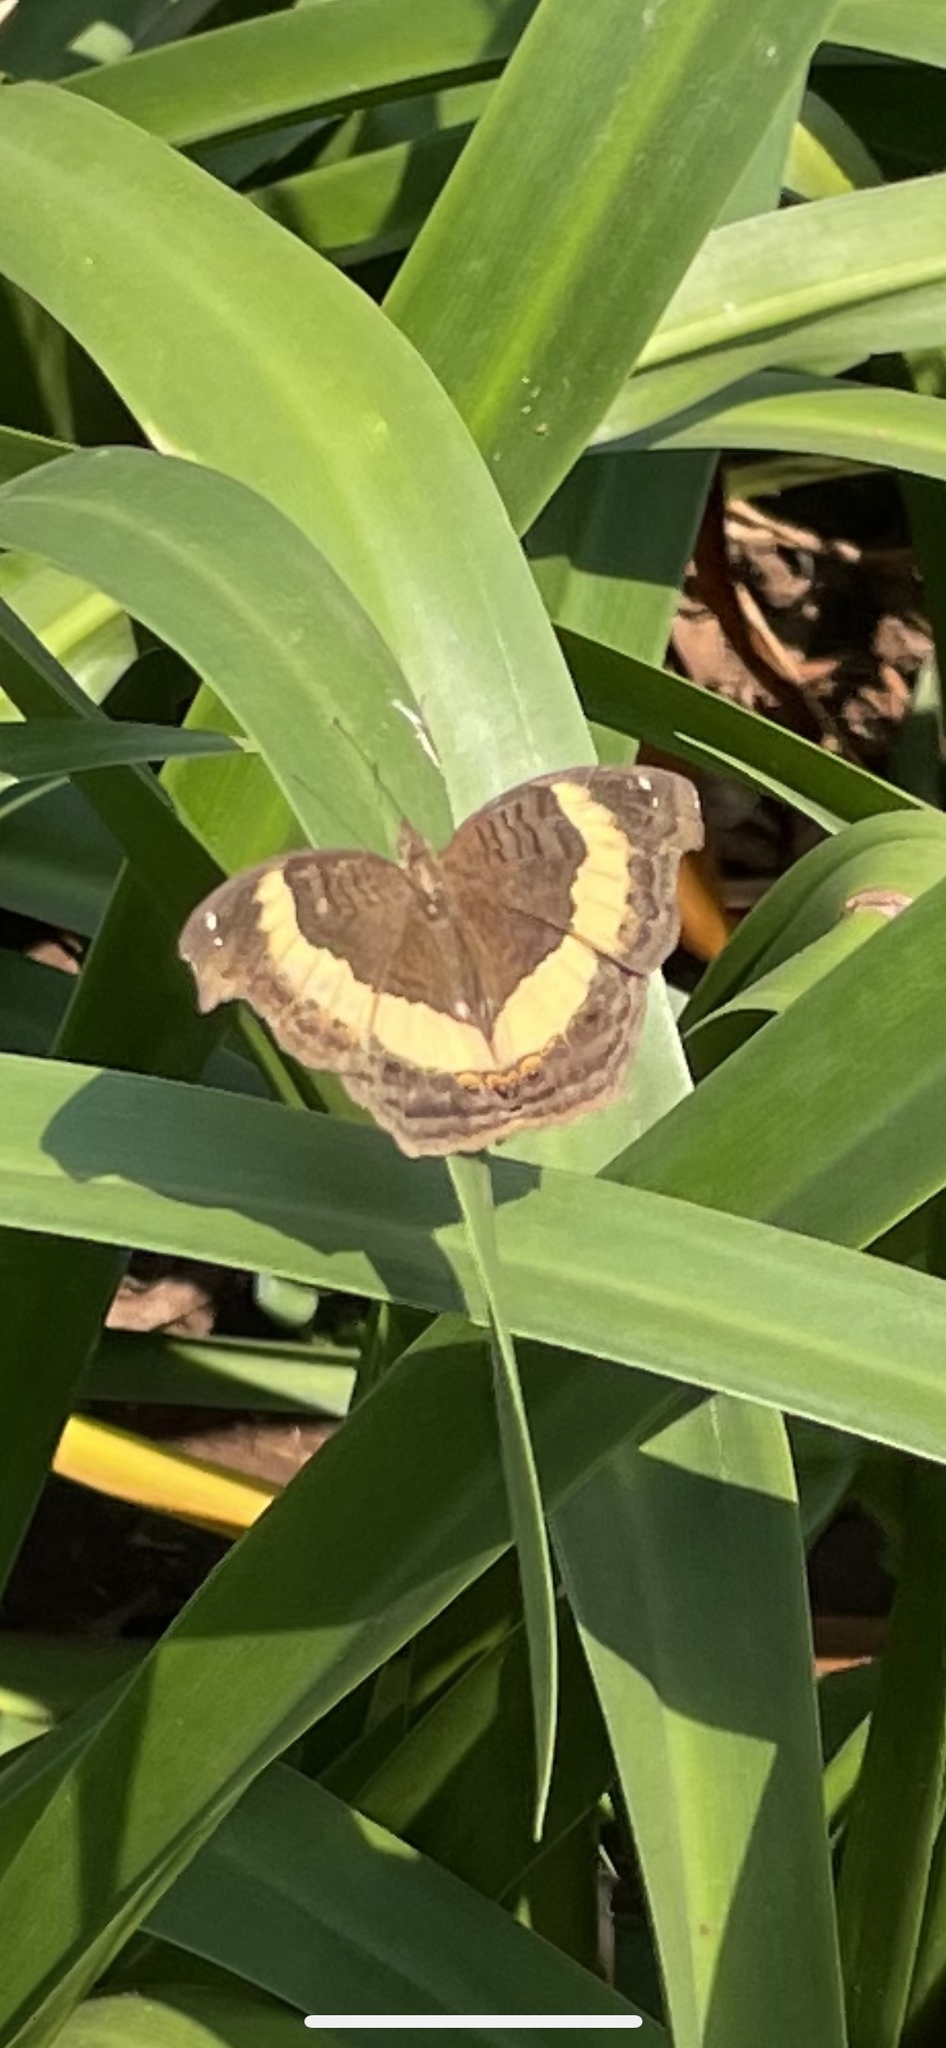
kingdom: Animalia
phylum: Arthropoda
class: Insecta
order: Lepidoptera
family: Nymphalidae
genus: Junonia
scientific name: Junonia terea
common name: Soldier pansy
